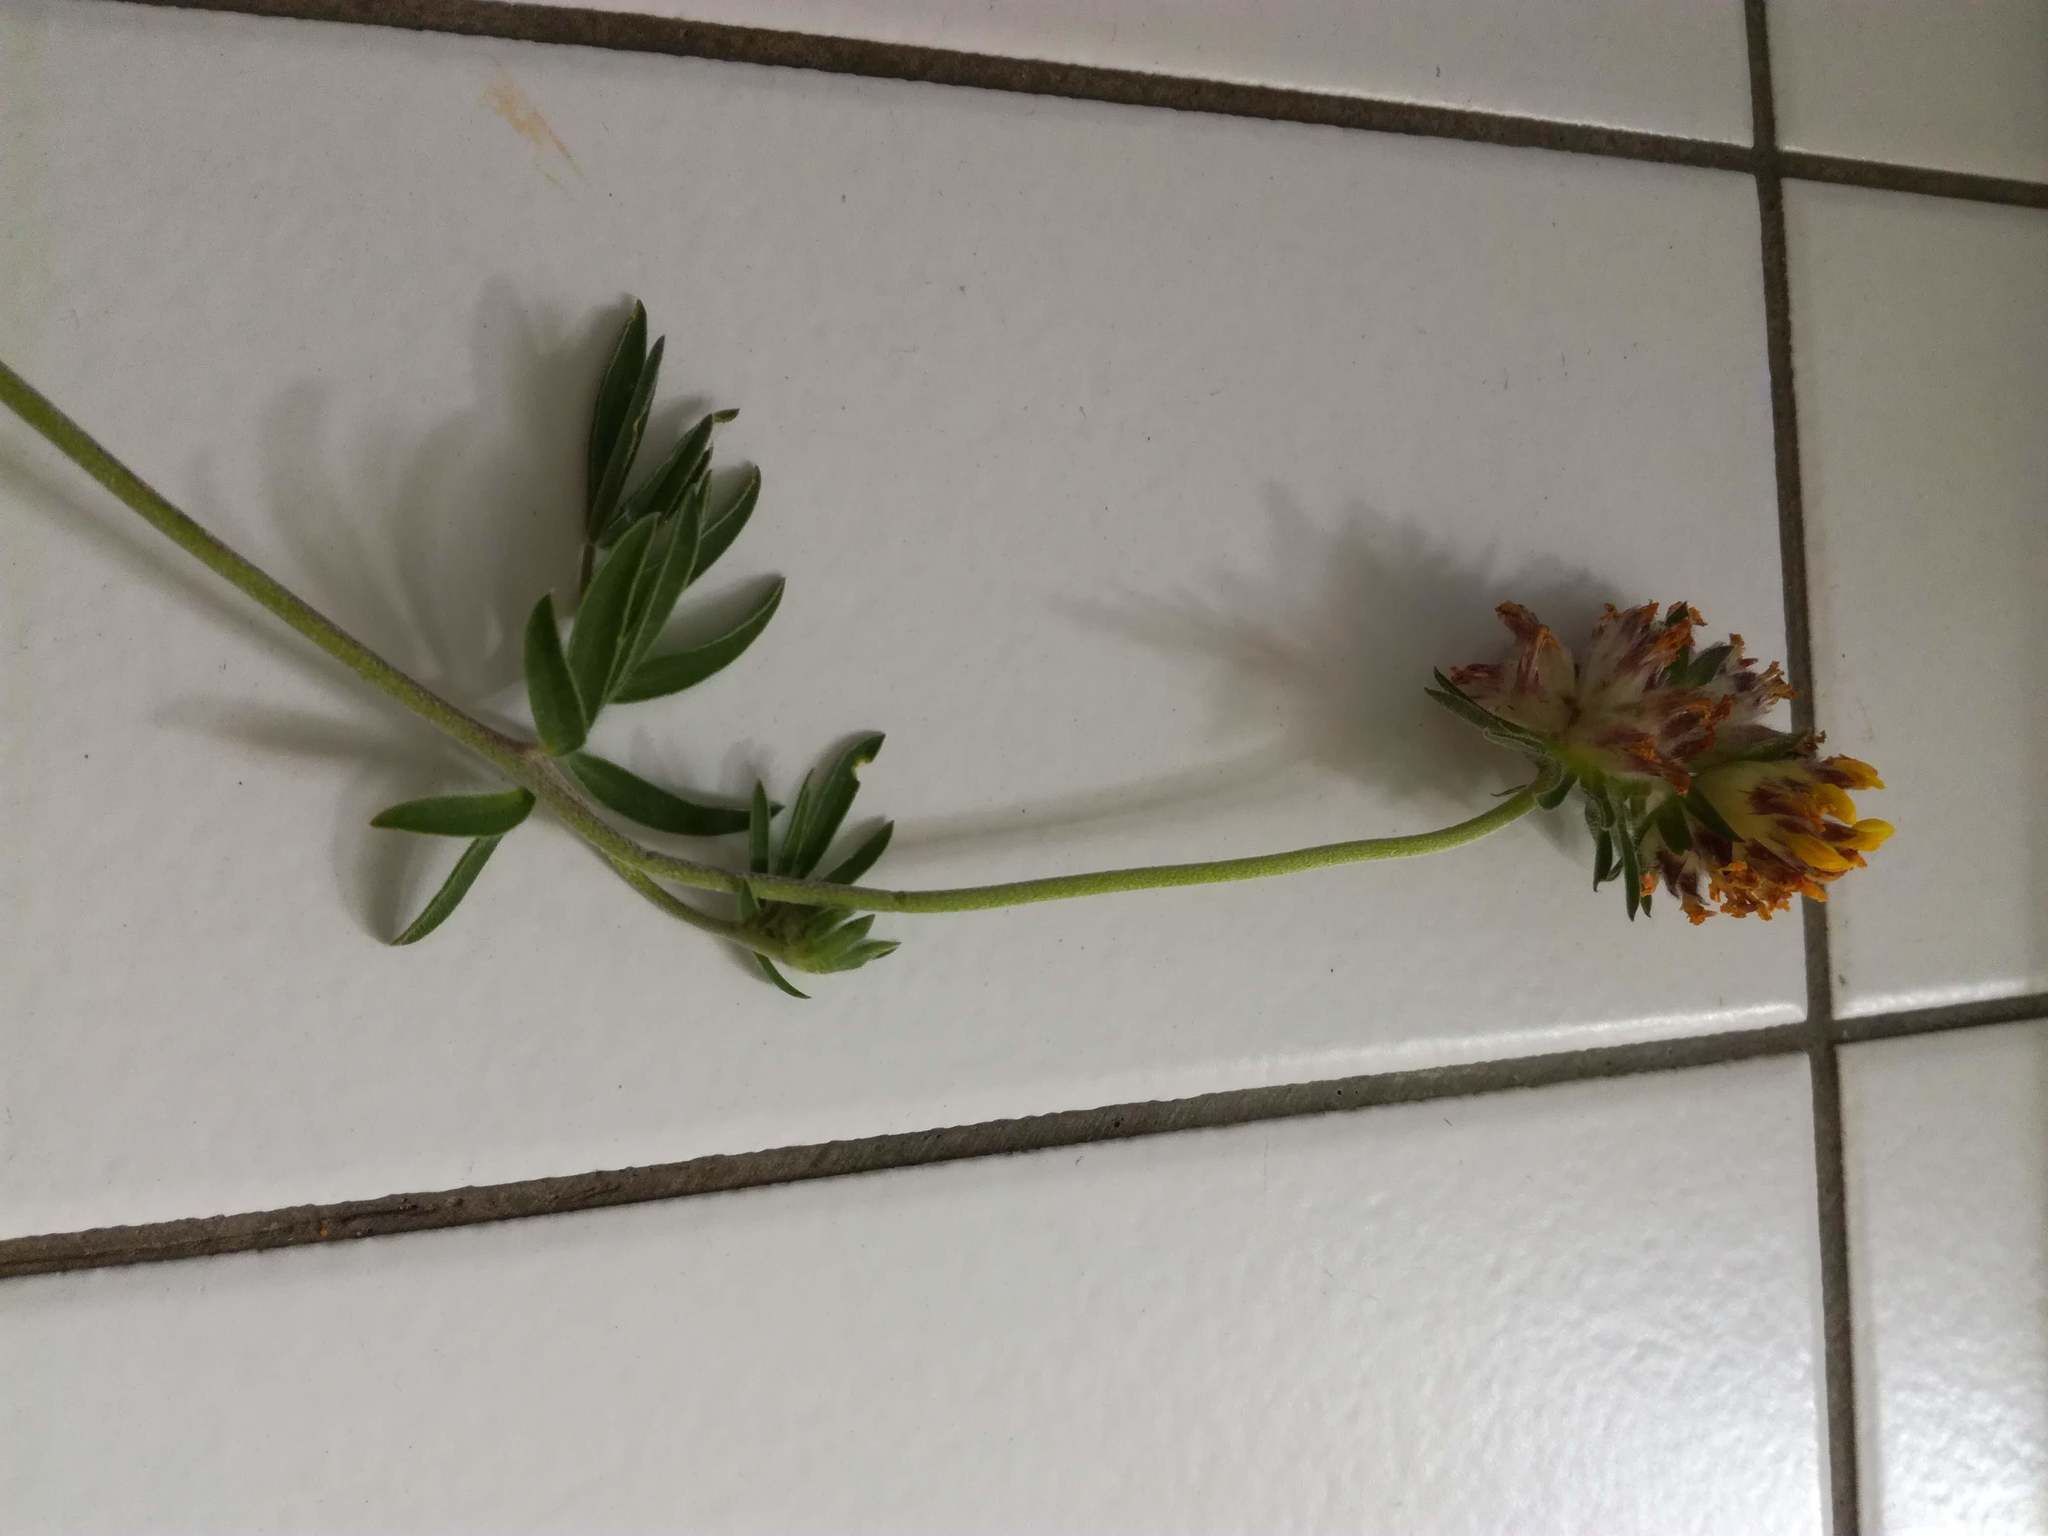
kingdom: Plantae
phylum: Tracheophyta
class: Magnoliopsida
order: Fabales
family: Fabaceae
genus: Anthyllis
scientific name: Anthyllis vulneraria
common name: Kidney vetch
